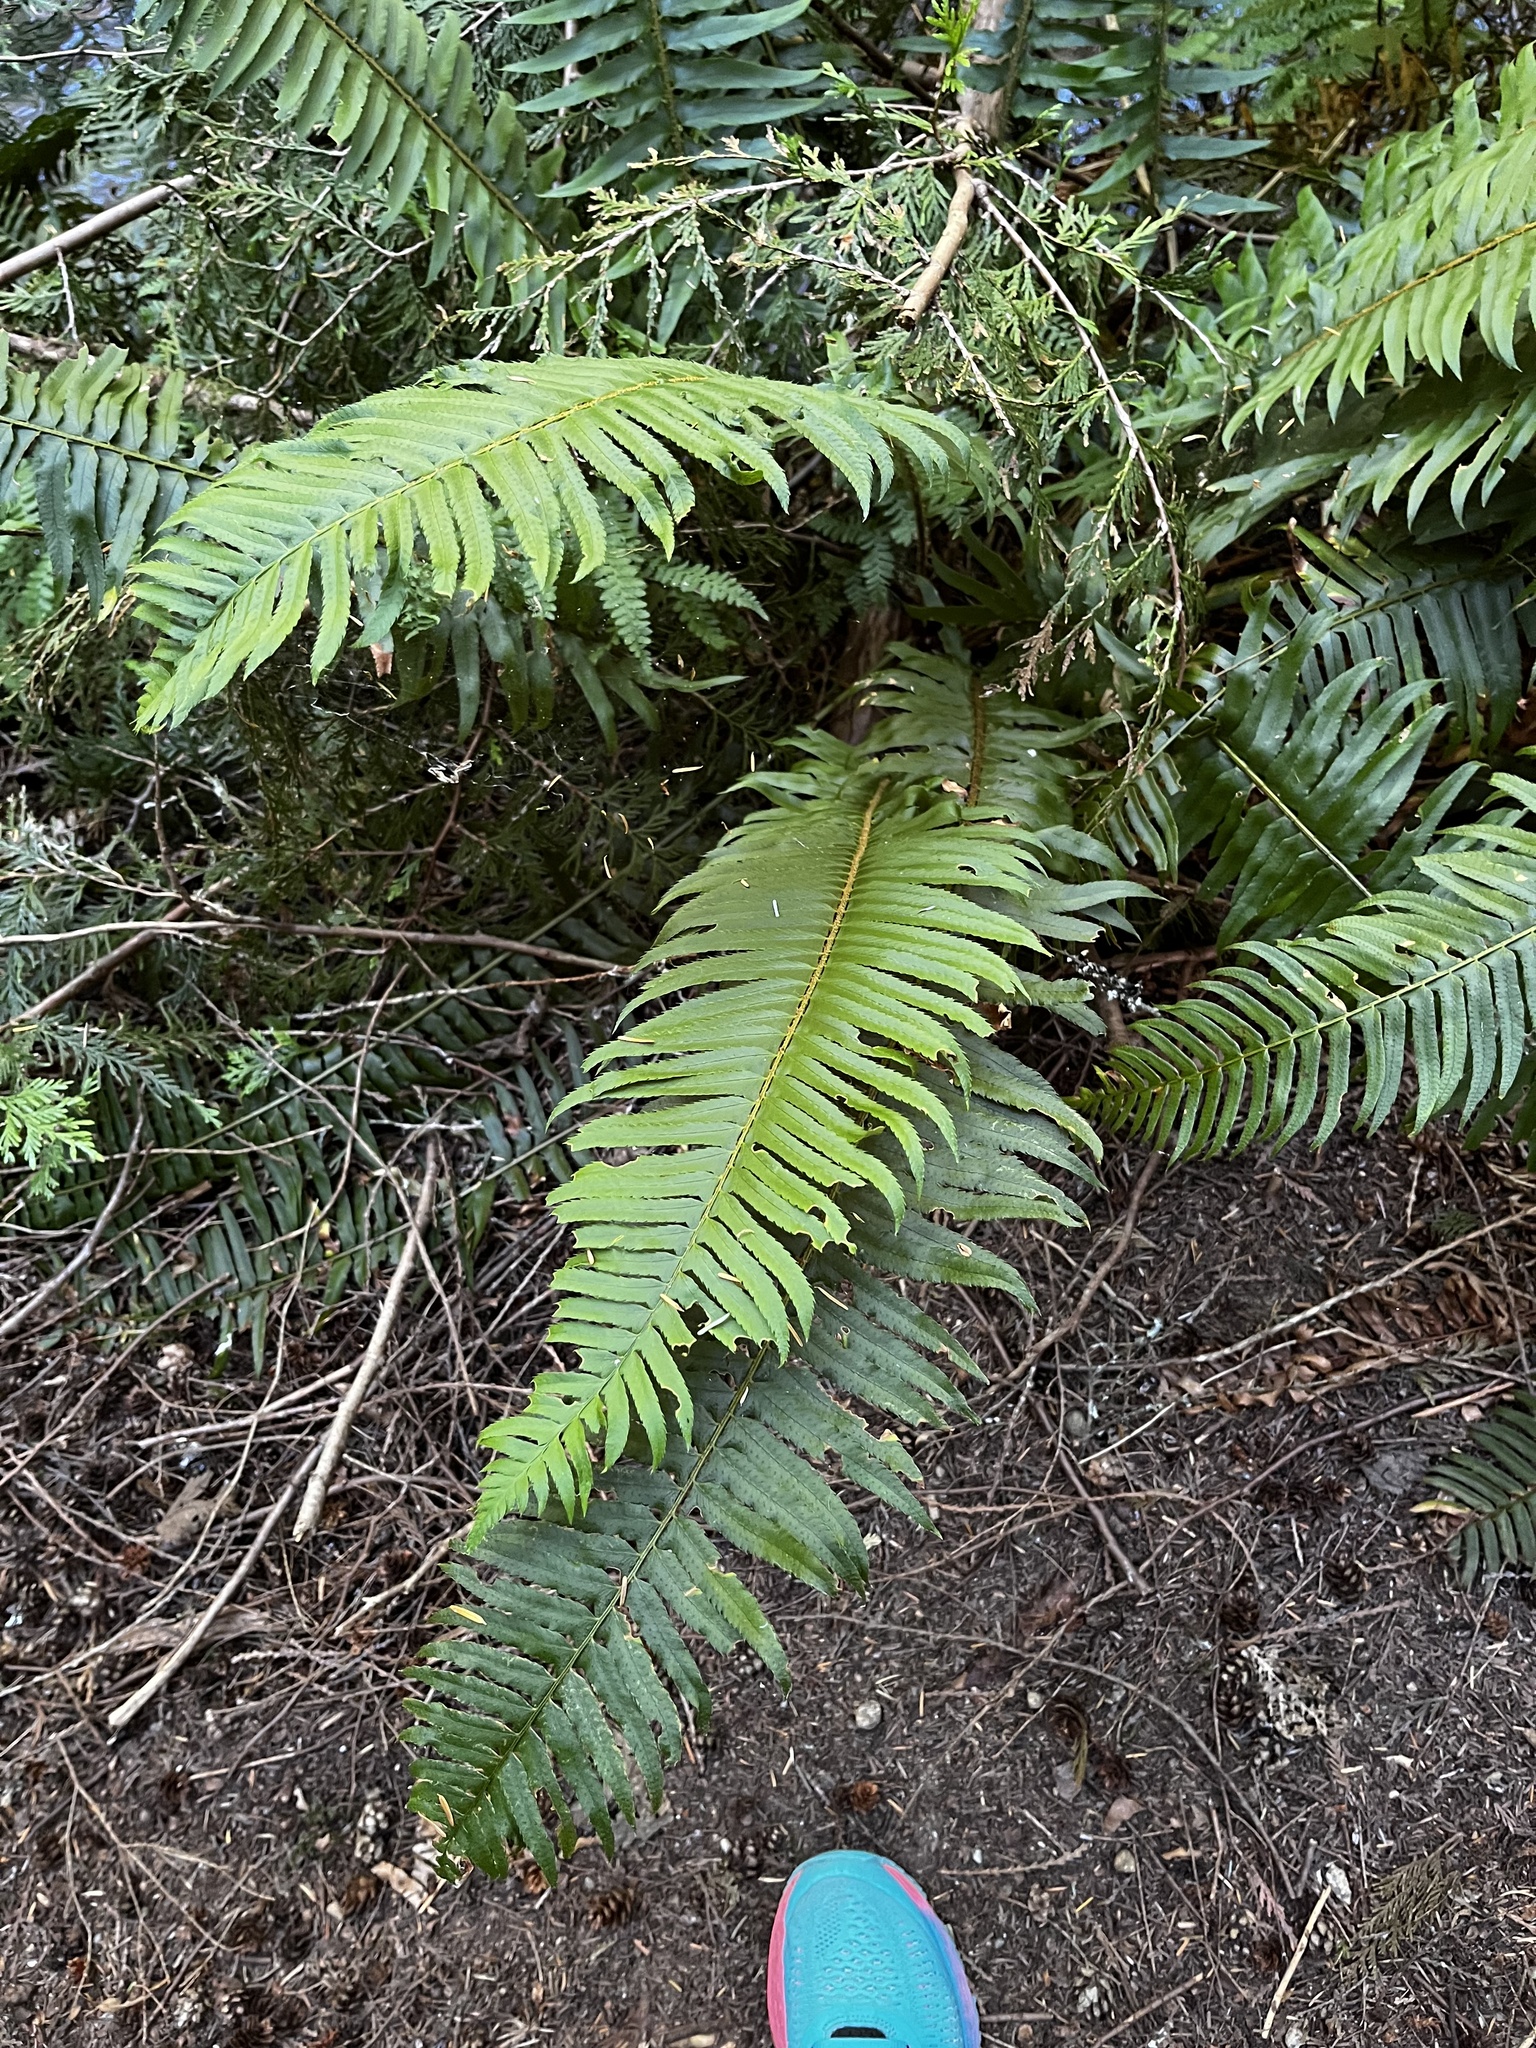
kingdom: Plantae
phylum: Tracheophyta
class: Polypodiopsida
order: Polypodiales
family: Dryopteridaceae
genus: Polystichum
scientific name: Polystichum munitum
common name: Western sword-fern
